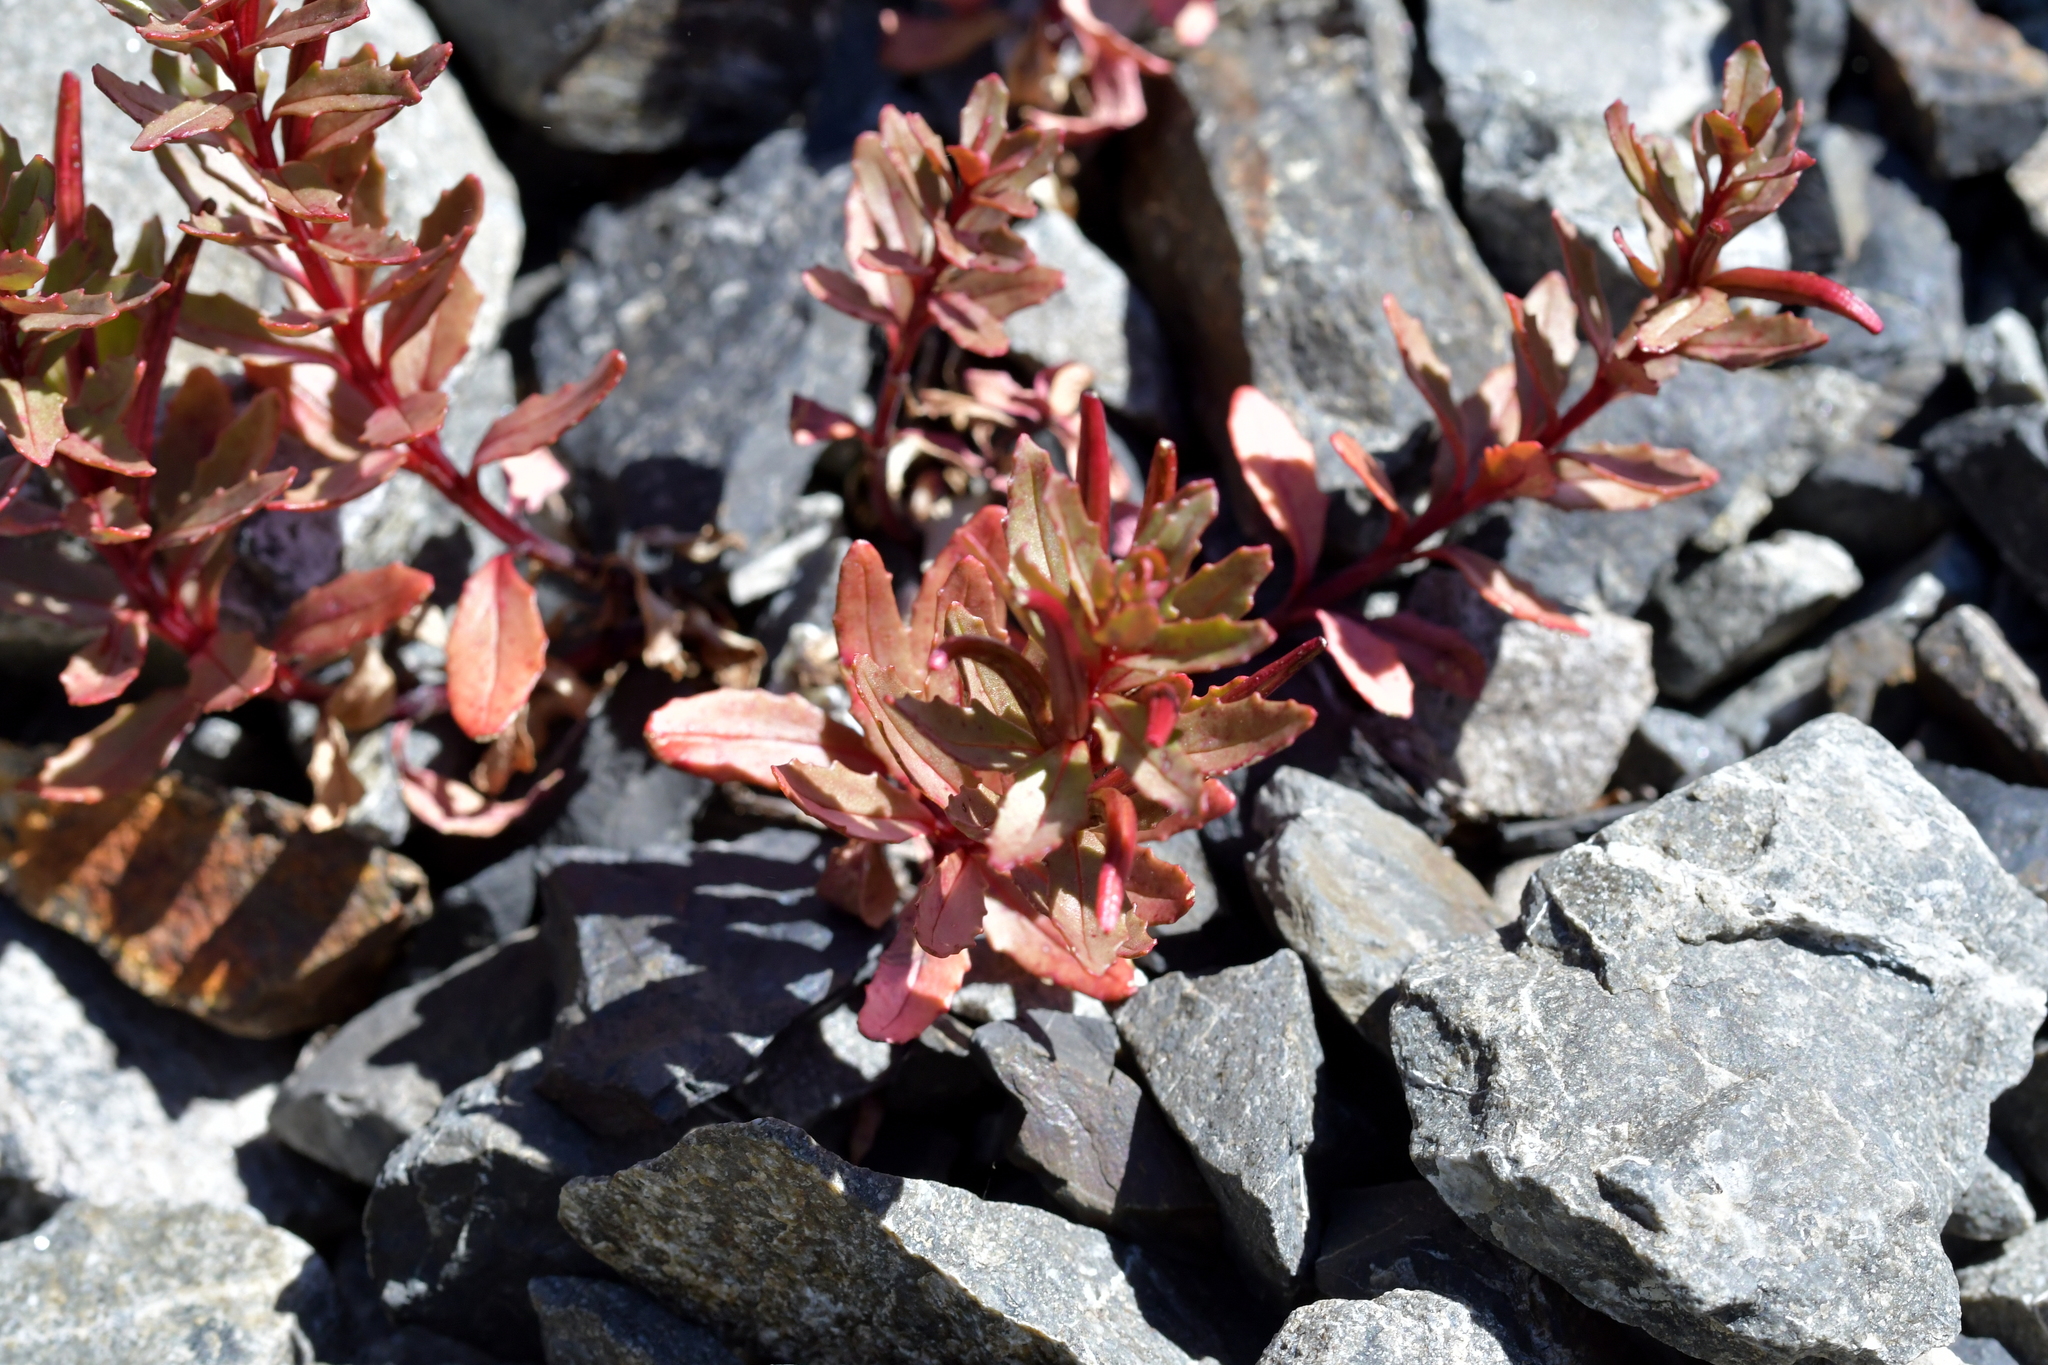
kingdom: Plantae
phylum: Tracheophyta
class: Magnoliopsida
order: Myrtales
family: Onagraceae
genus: Epilobium
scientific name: Epilobium pycnostachyum
